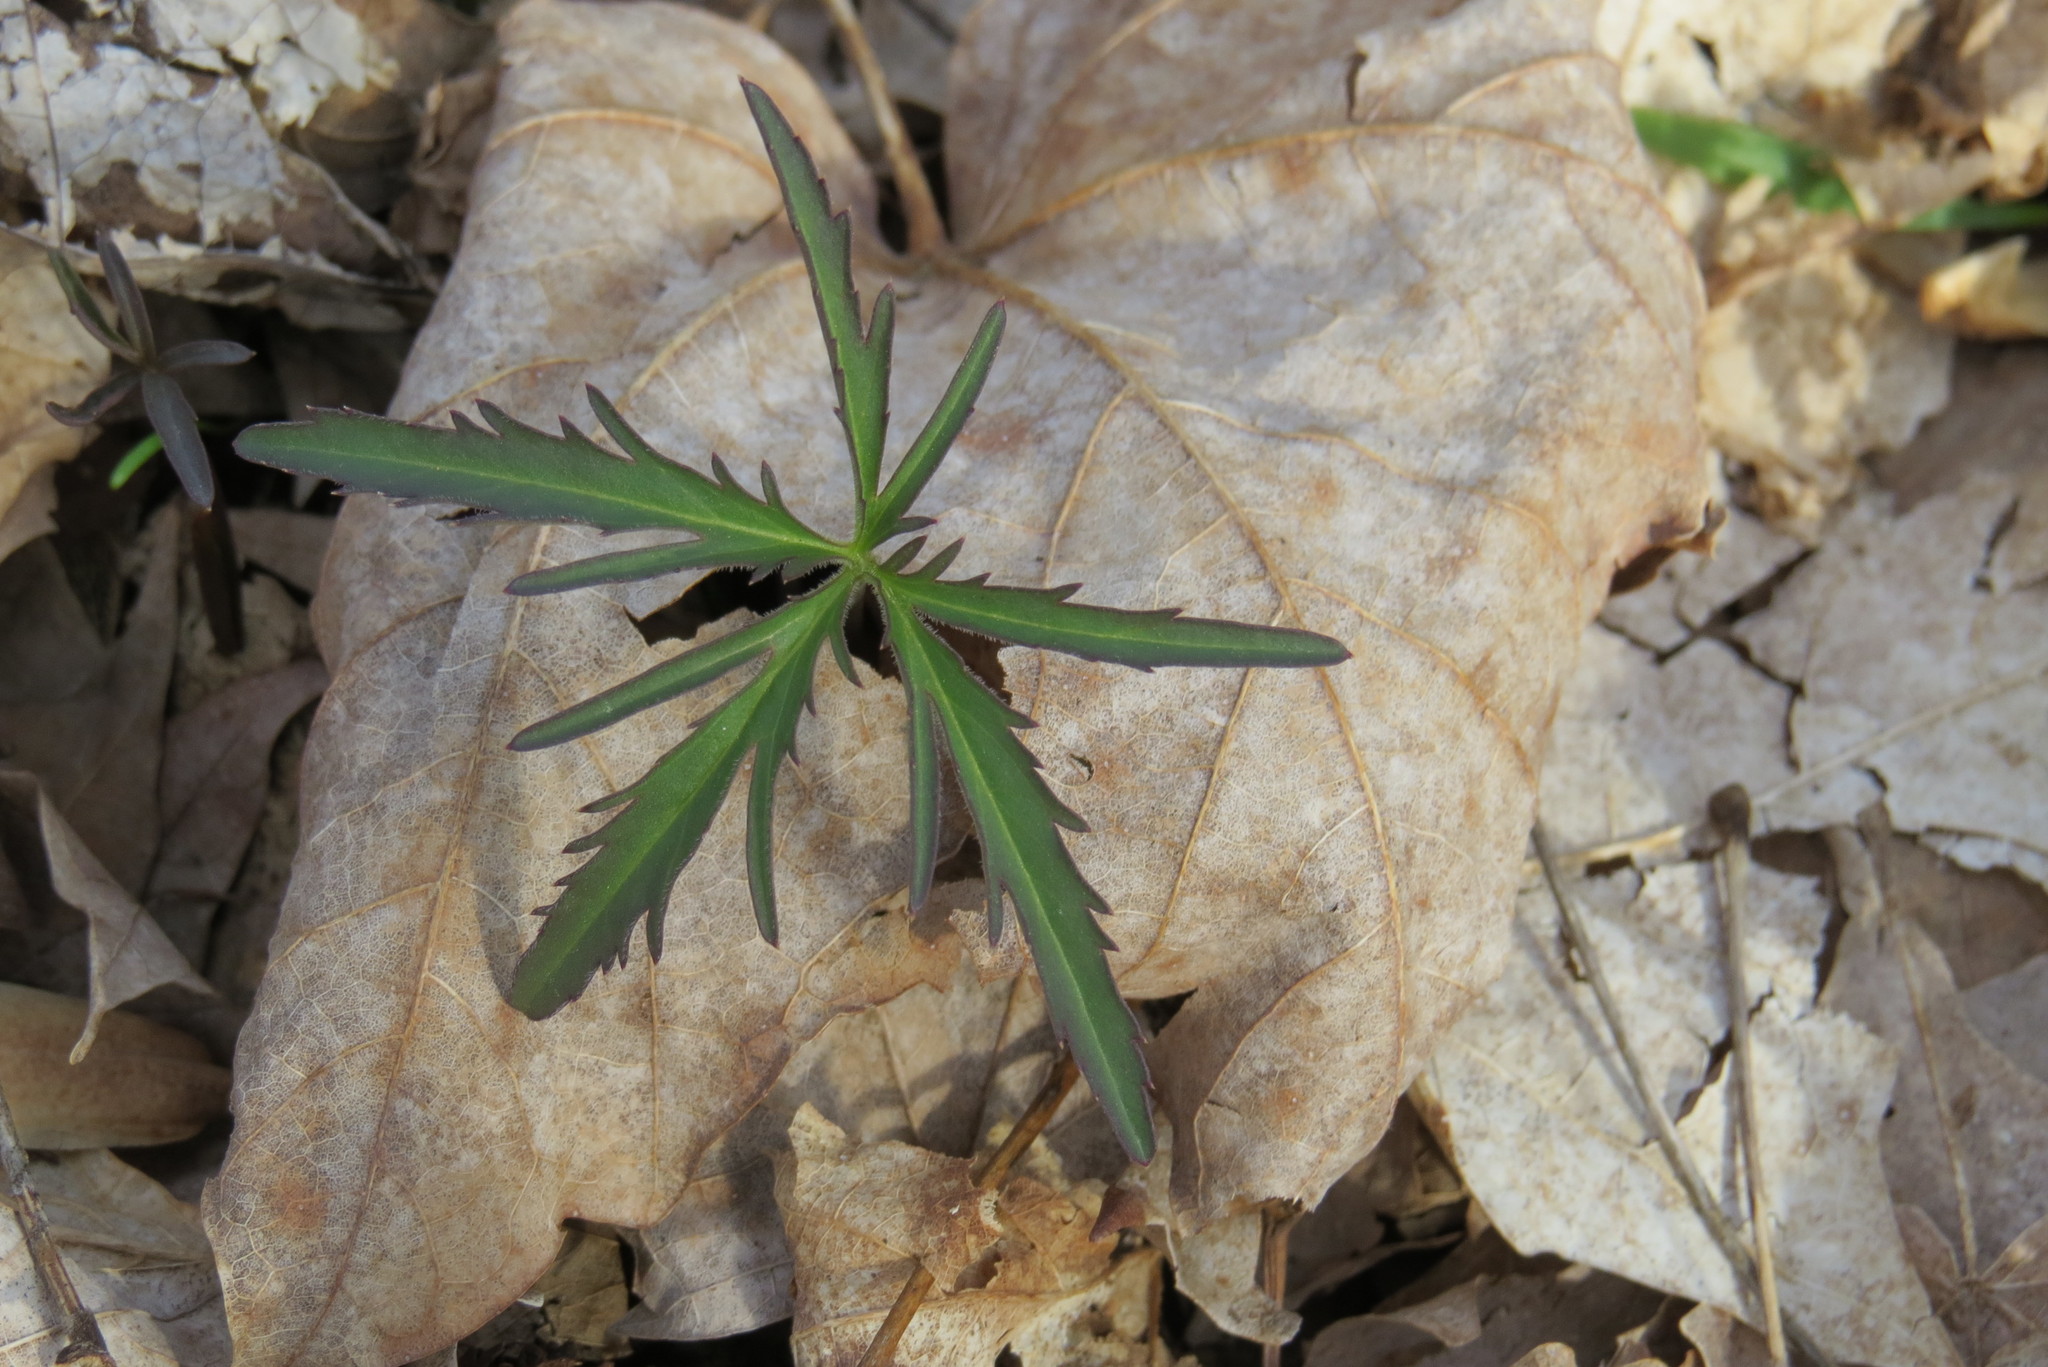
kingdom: Plantae
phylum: Tracheophyta
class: Magnoliopsida
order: Brassicales
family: Brassicaceae
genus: Cardamine
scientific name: Cardamine concatenata
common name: Cut-leaf toothcup
